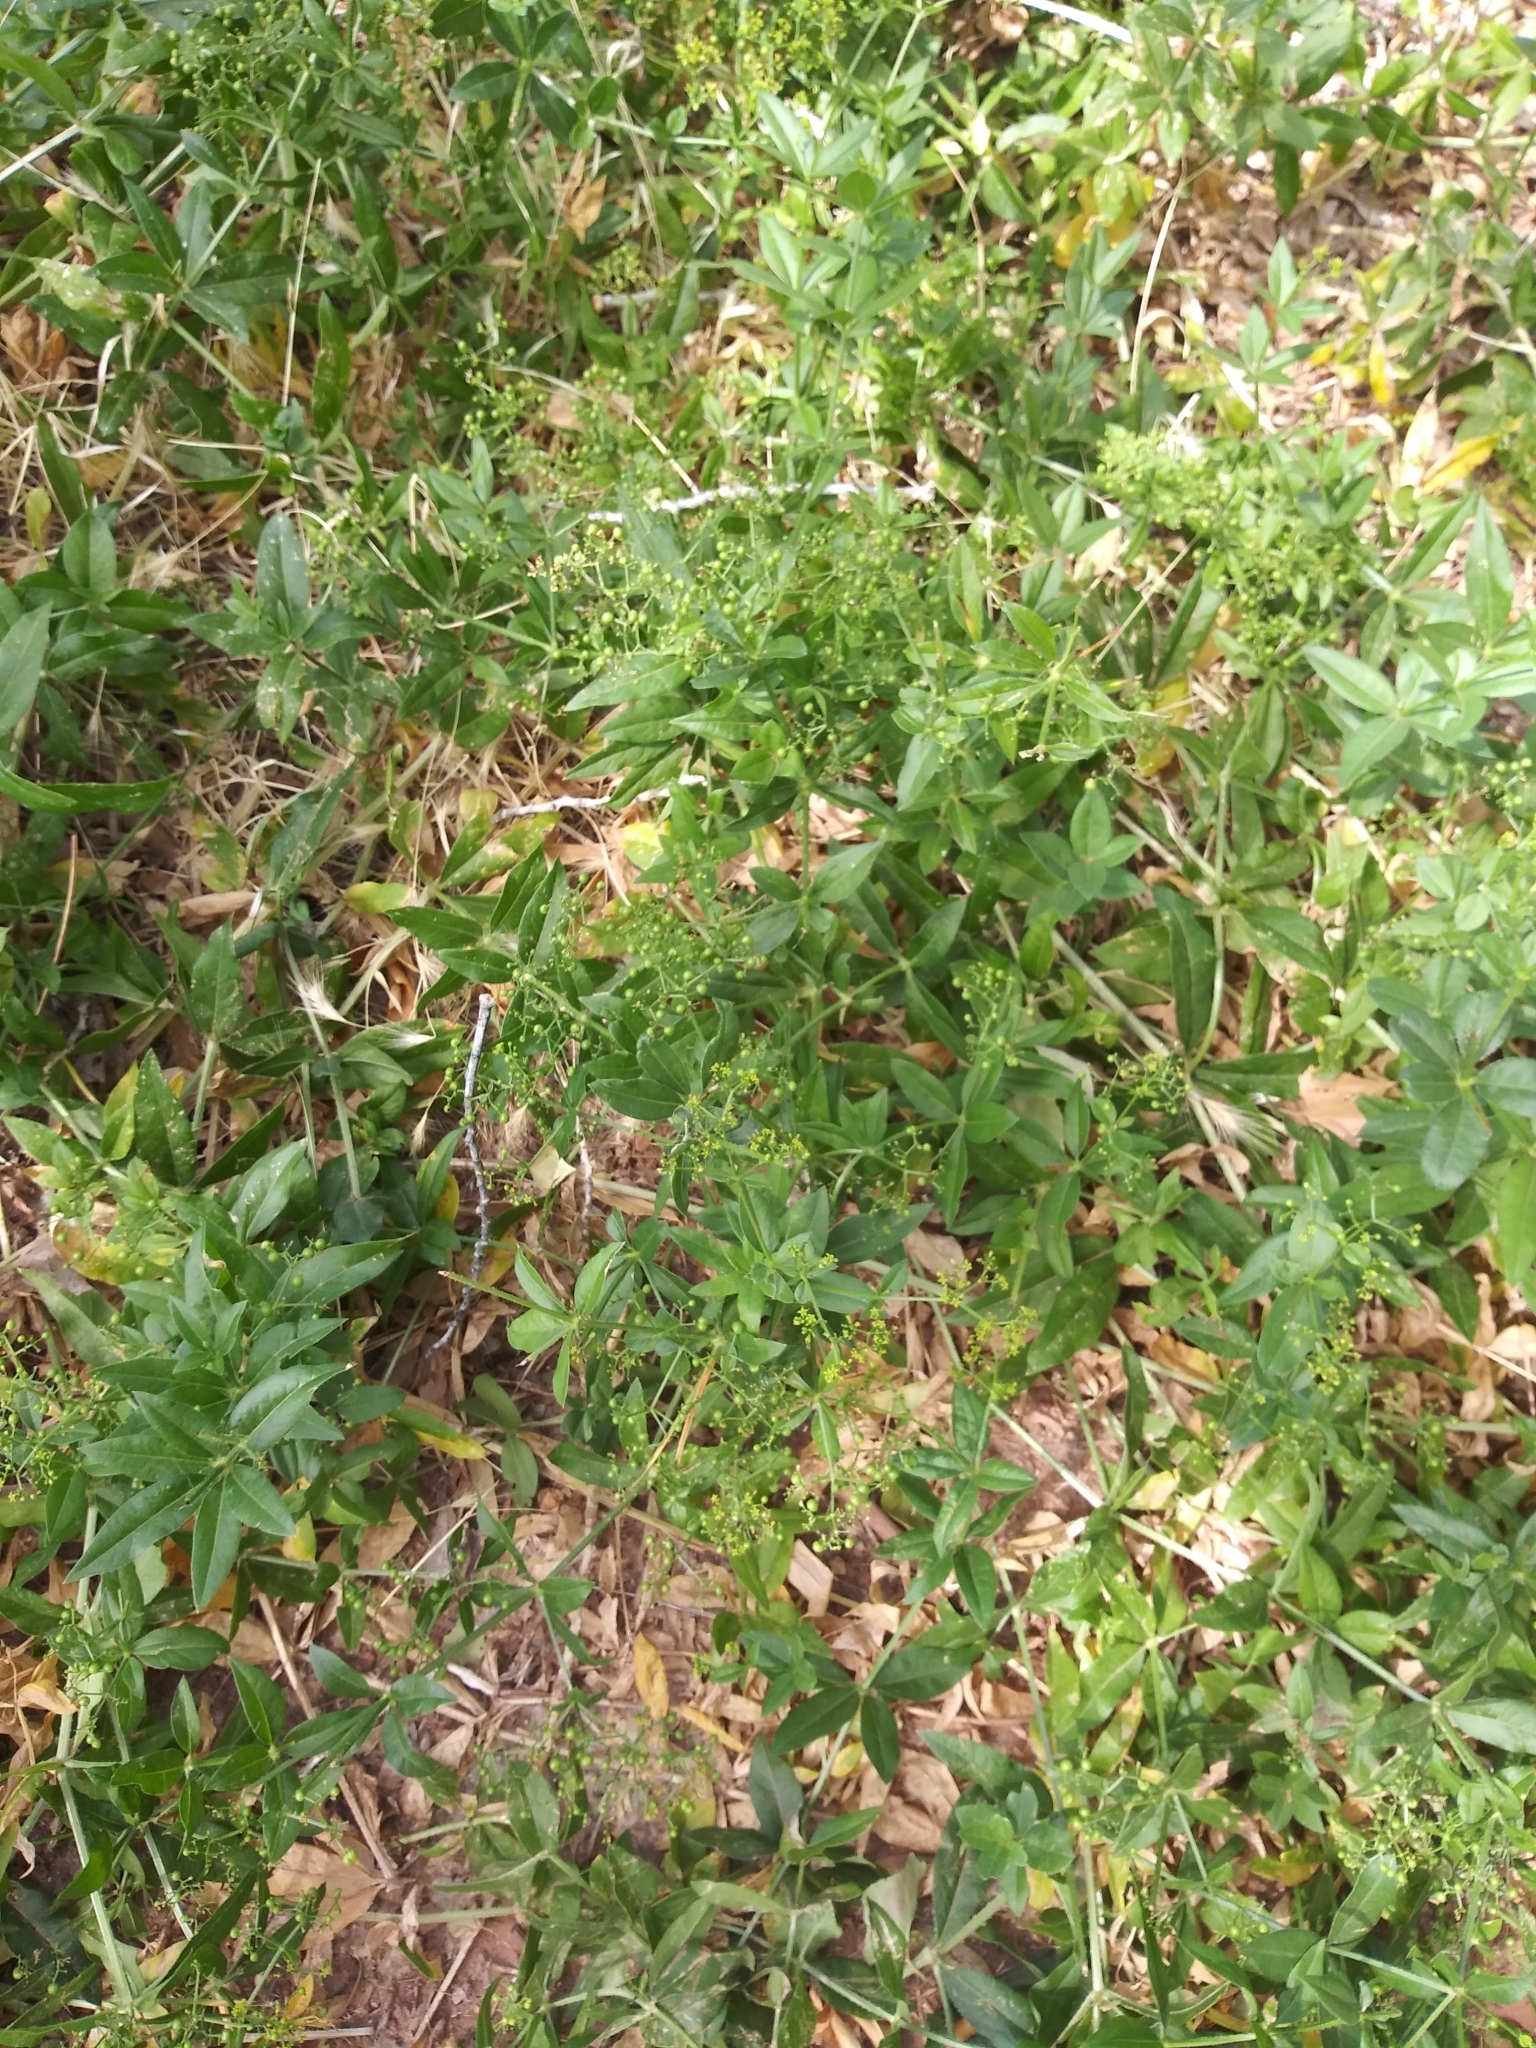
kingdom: Plantae
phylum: Tracheophyta
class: Magnoliopsida
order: Gentianales
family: Rubiaceae
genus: Rubia
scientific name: Rubia tinctorum
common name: Dyer's madder
